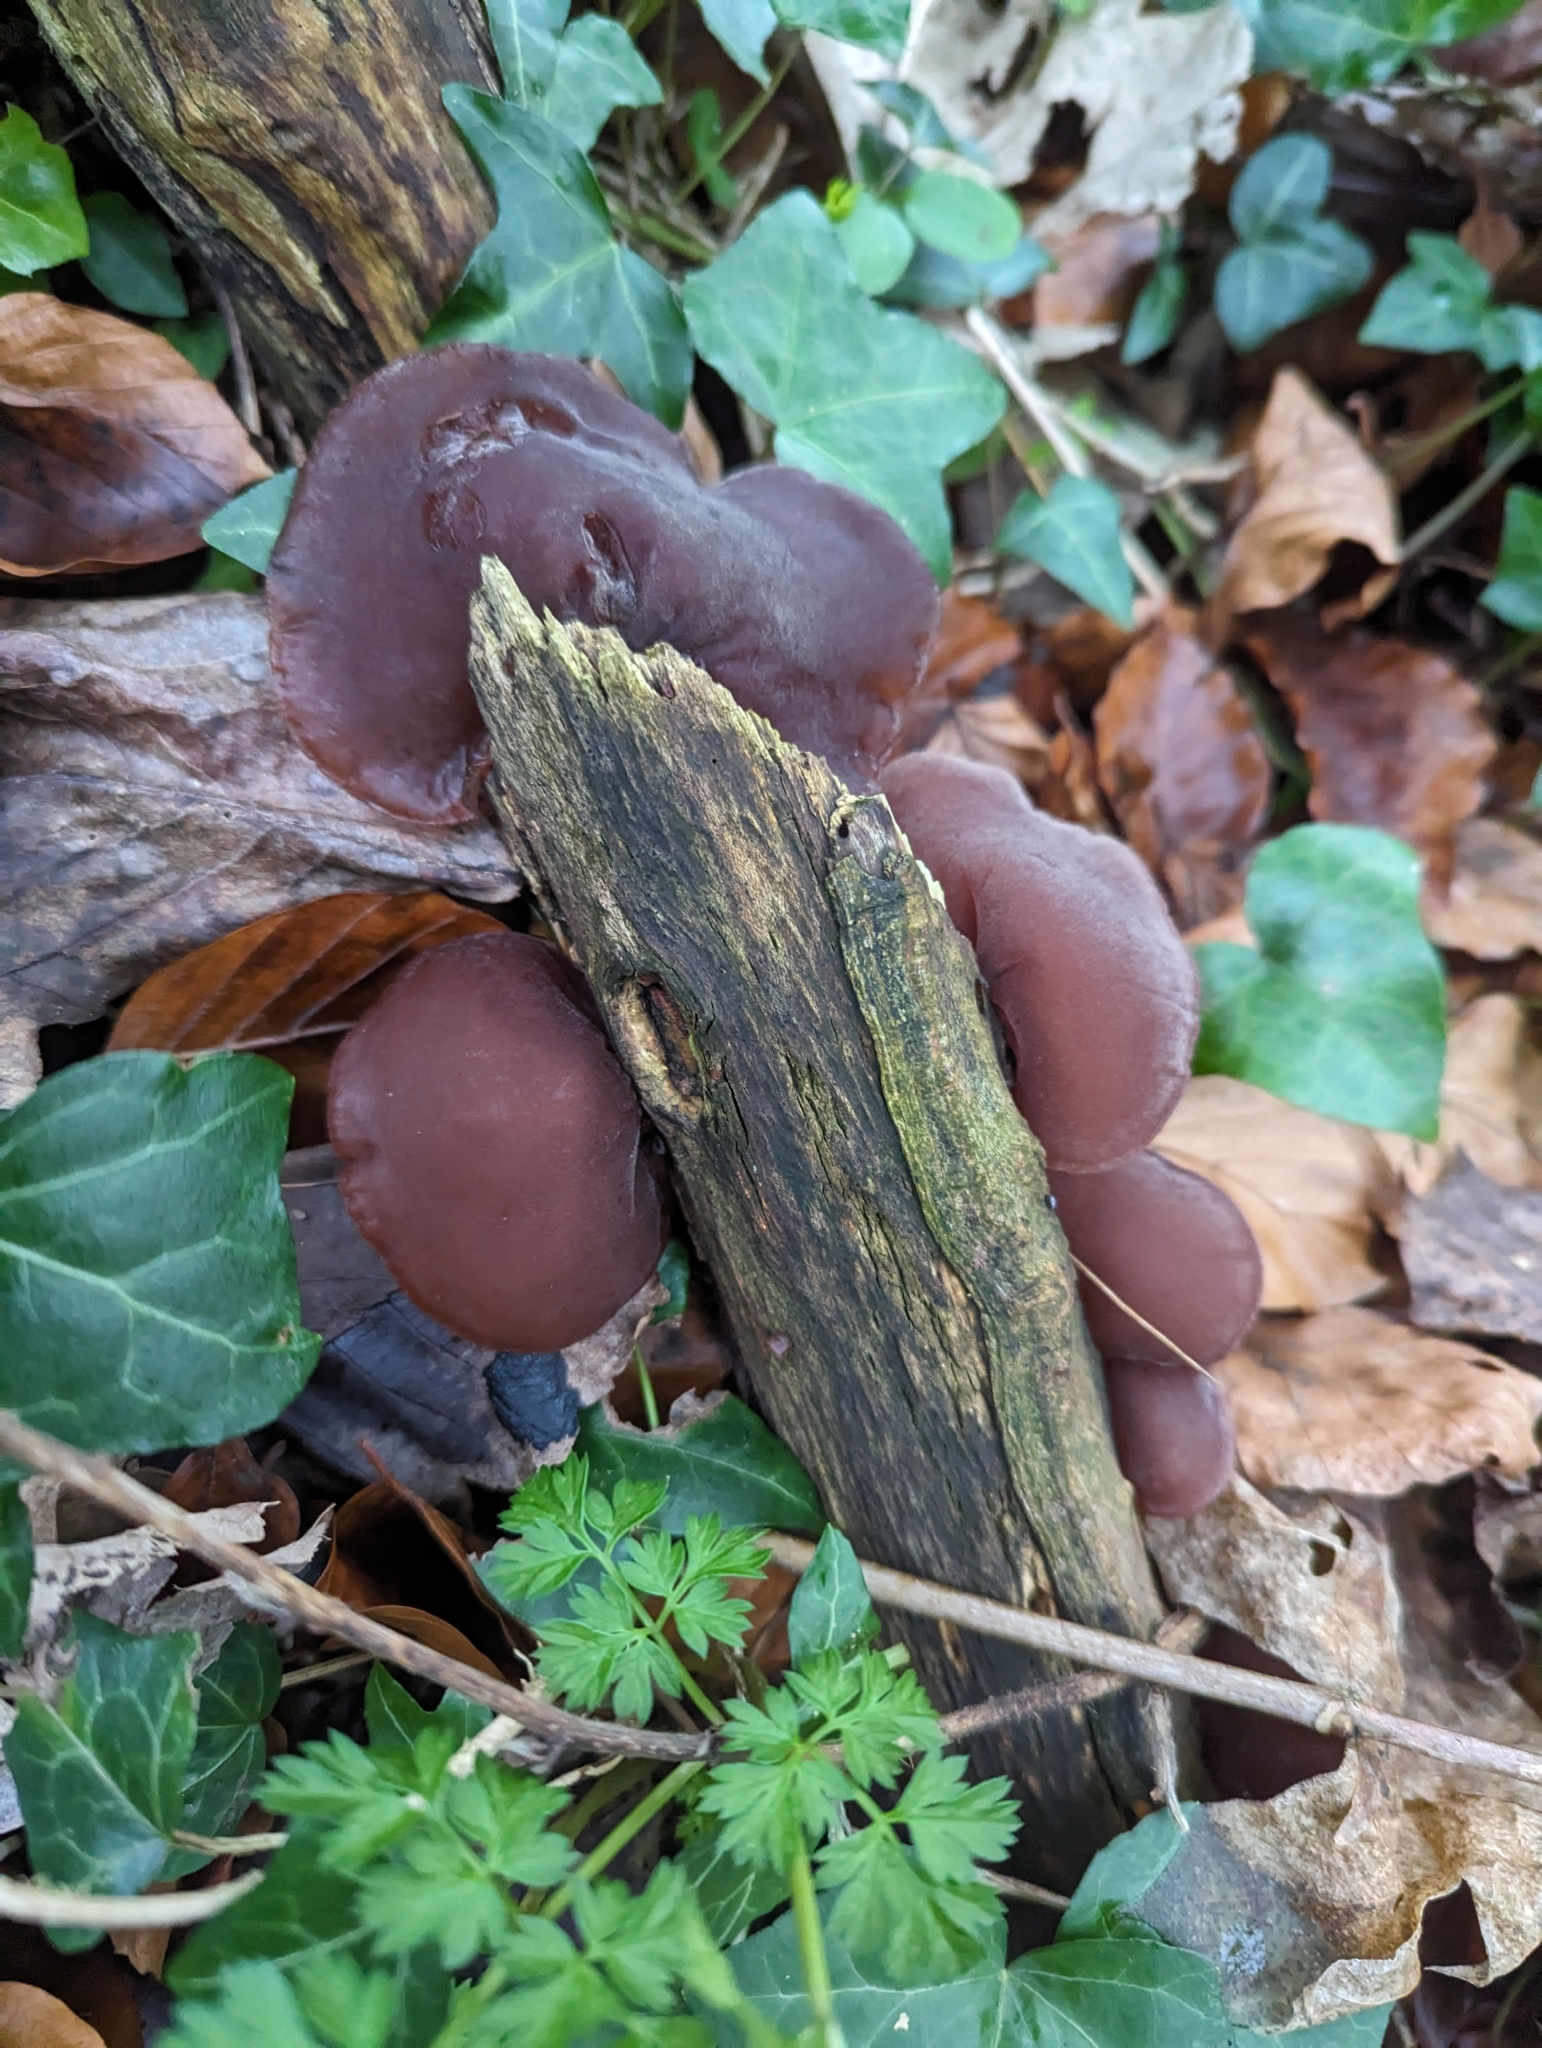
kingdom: Fungi
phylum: Basidiomycota
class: Agaricomycetes
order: Auriculariales
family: Auriculariaceae
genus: Auricularia
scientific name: Auricularia auricula-judae
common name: Jelly ear
